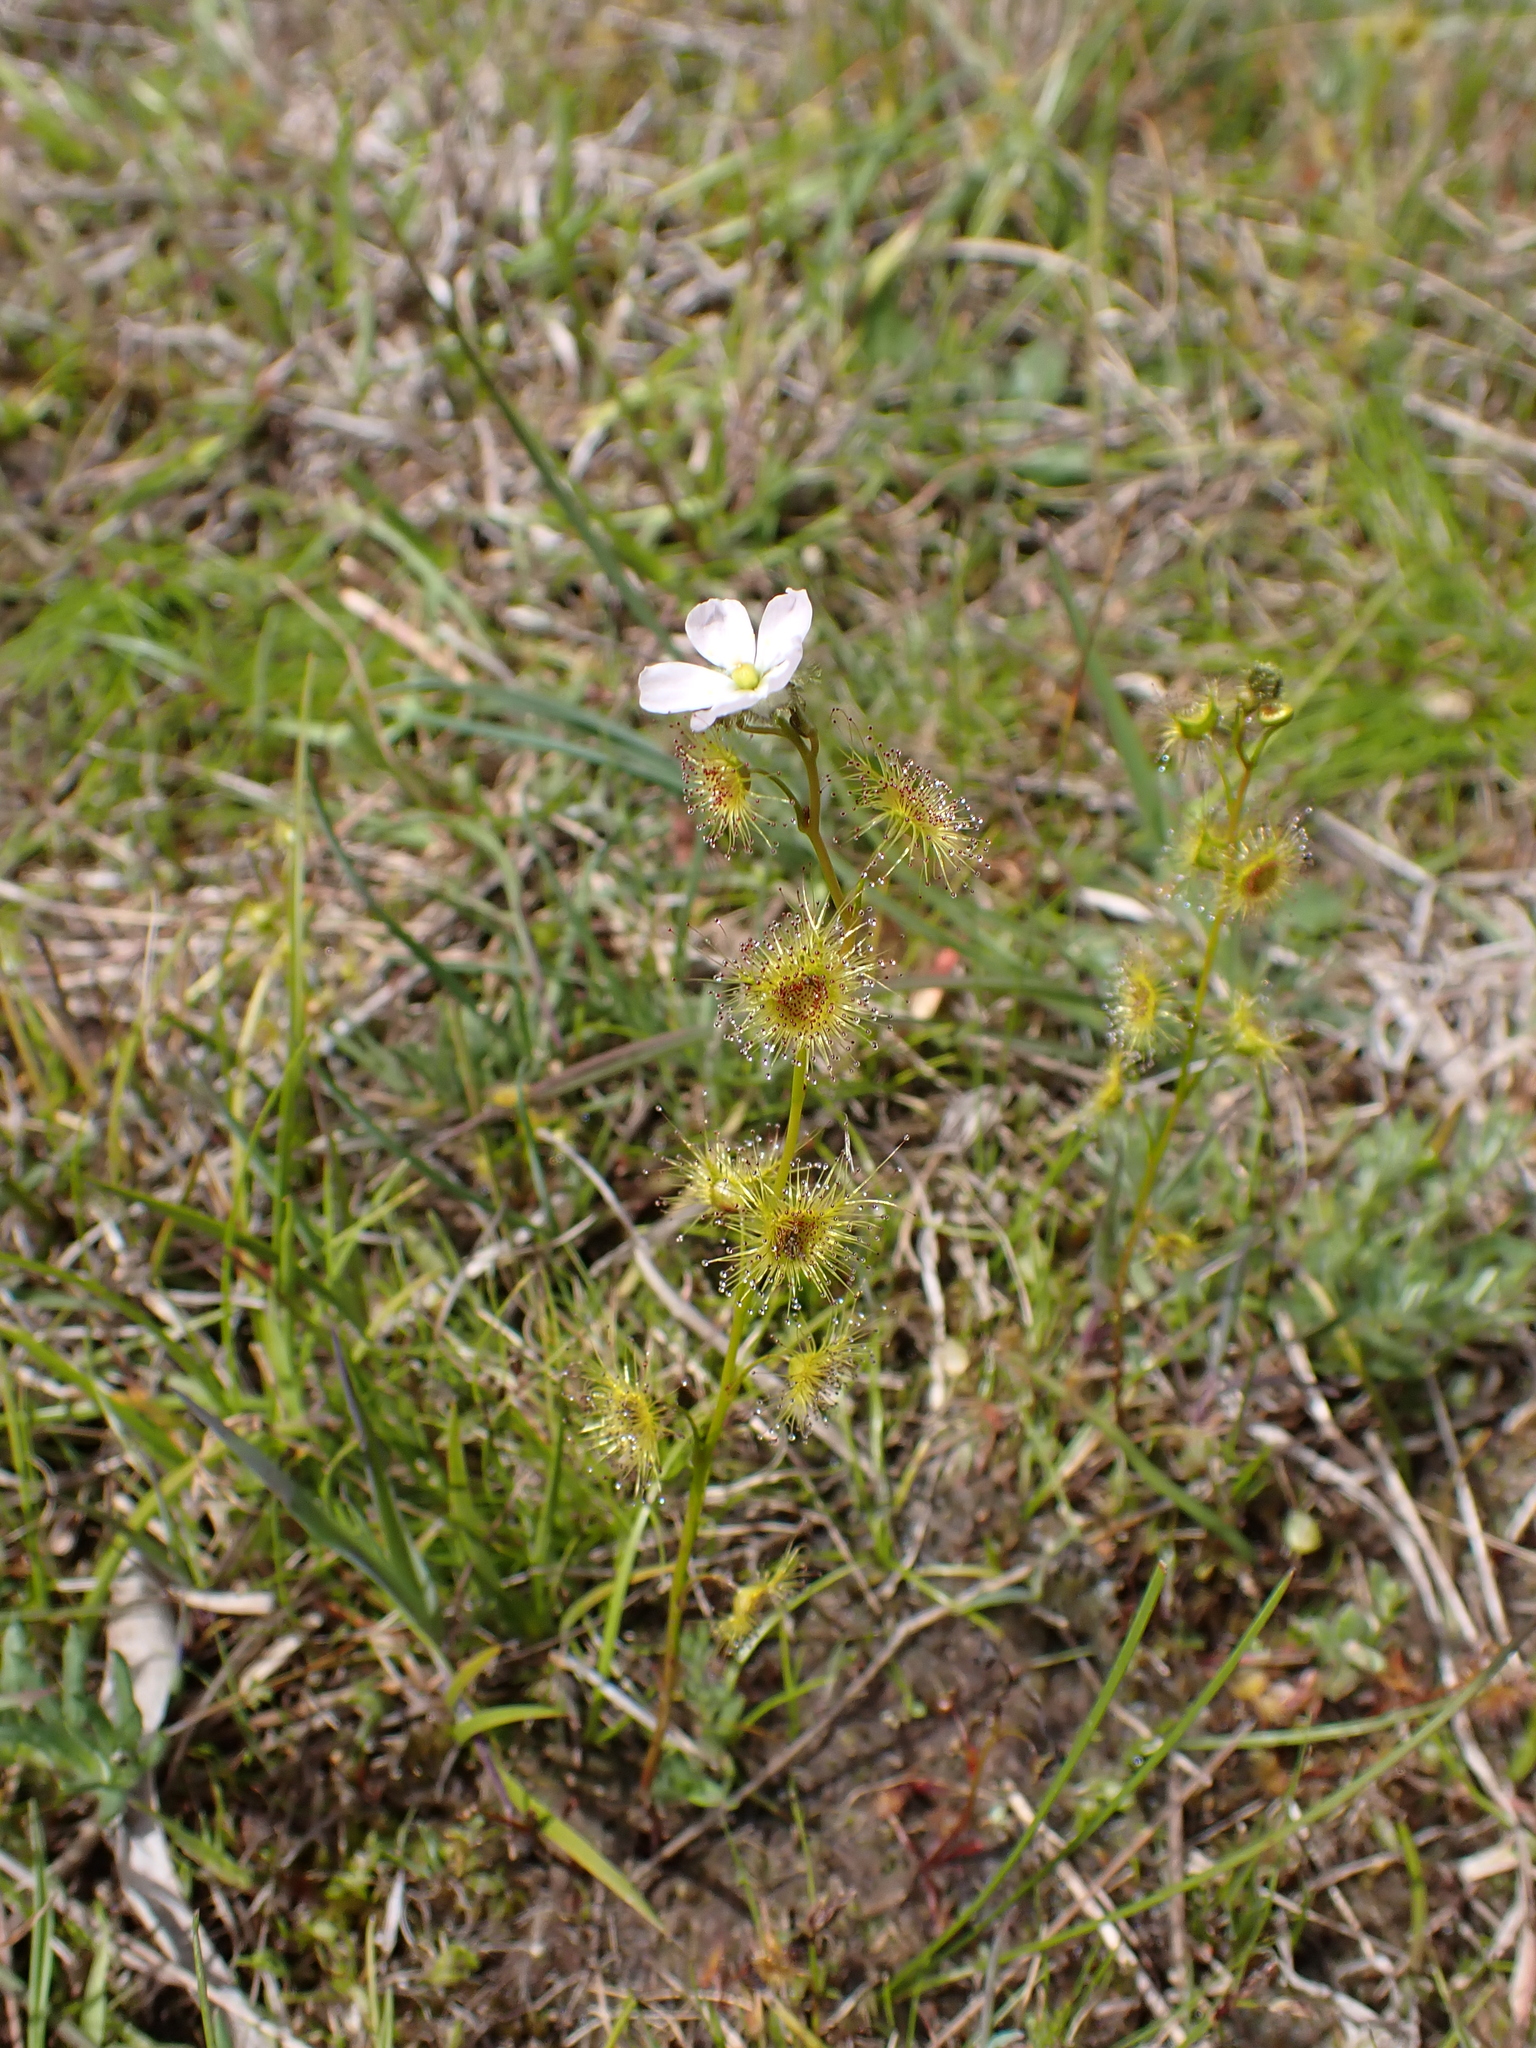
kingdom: Plantae
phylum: Tracheophyta
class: Magnoliopsida
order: Caryophyllales
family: Droseraceae
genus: Drosera
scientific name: Drosera gunniana
